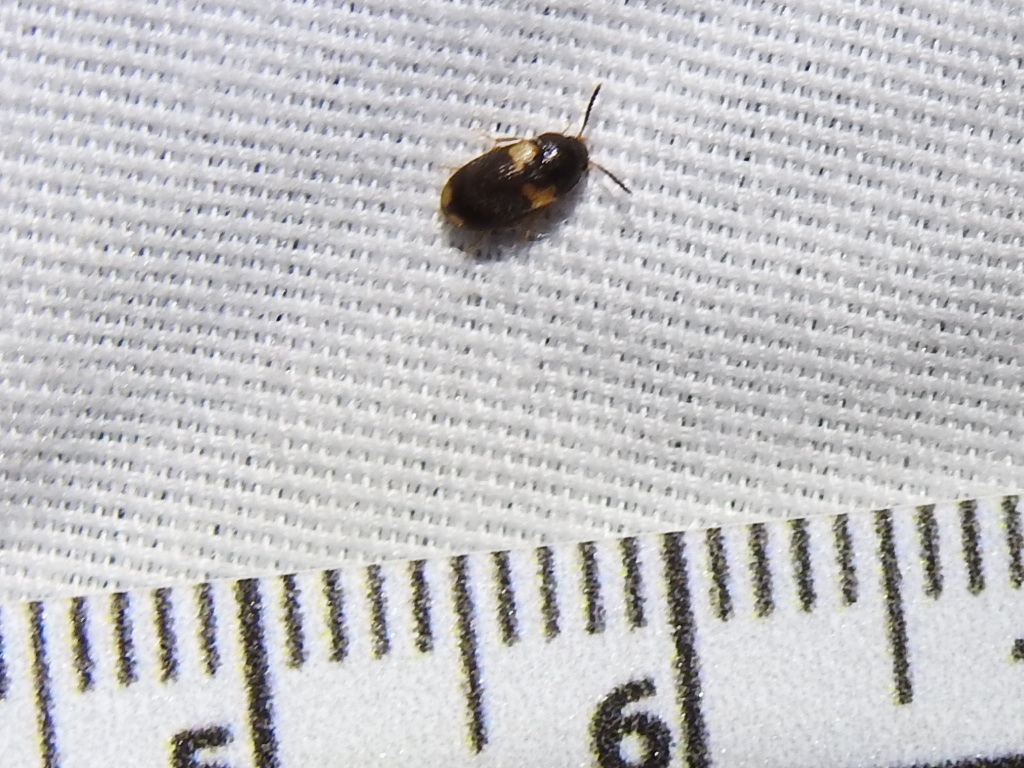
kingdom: Animalia
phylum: Arthropoda
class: Insecta
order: Coleoptera
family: Mycetophagidae
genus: Mycetophagus
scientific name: Mycetophagus serrulatus
